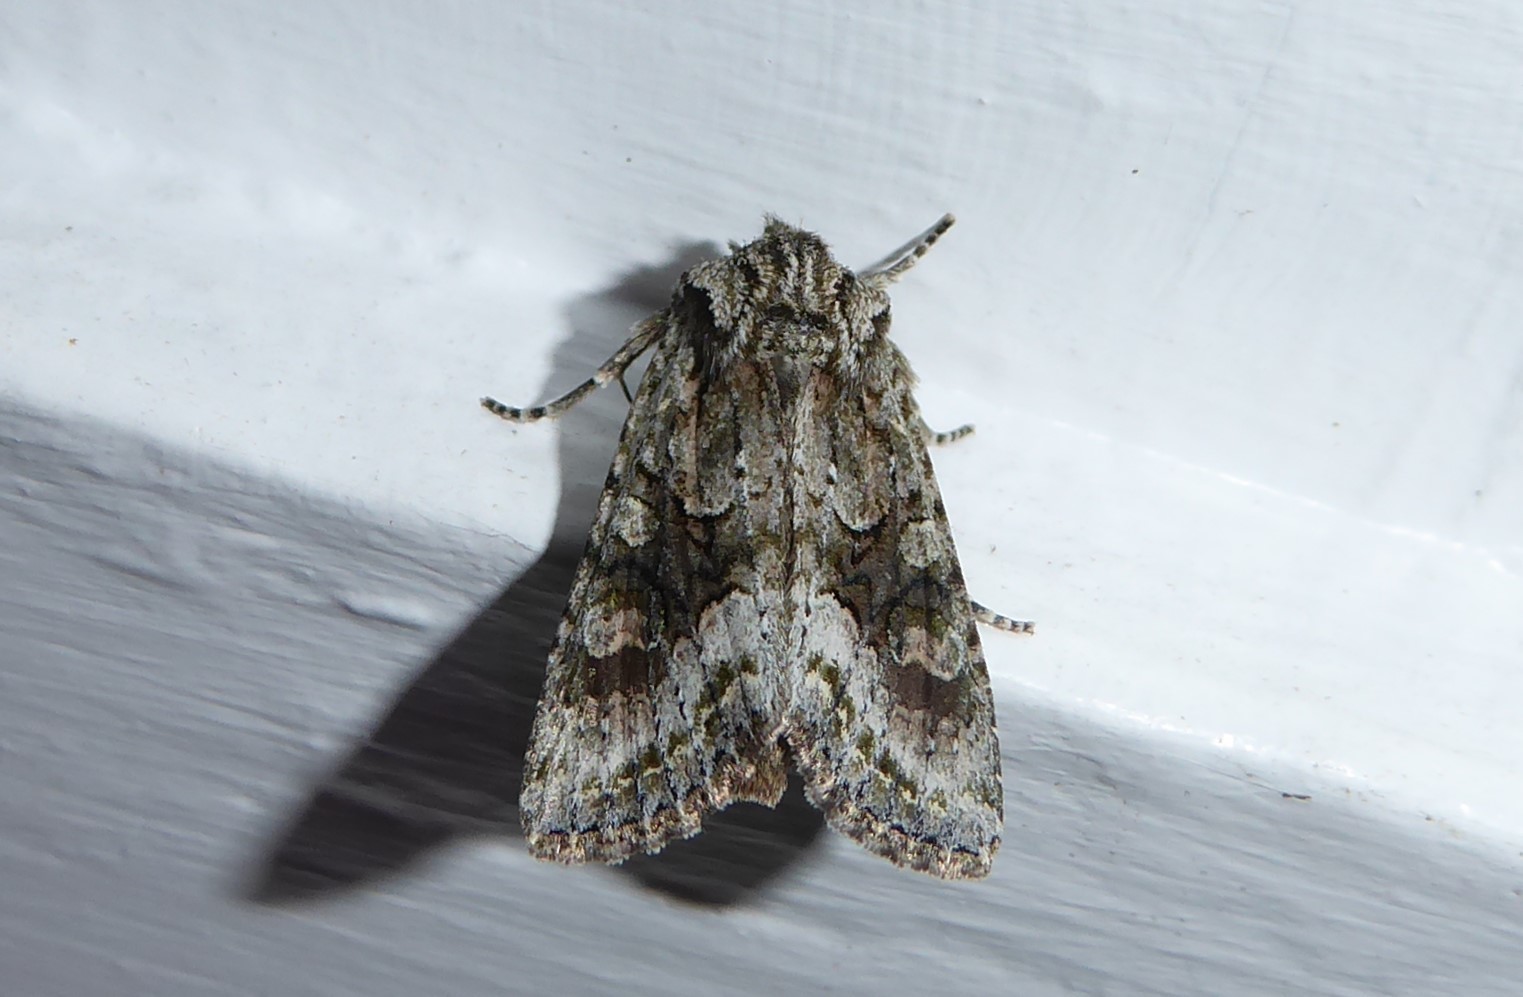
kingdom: Animalia
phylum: Arthropoda
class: Insecta
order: Lepidoptera
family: Noctuidae
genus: Ichneutica
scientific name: Ichneutica mutans
